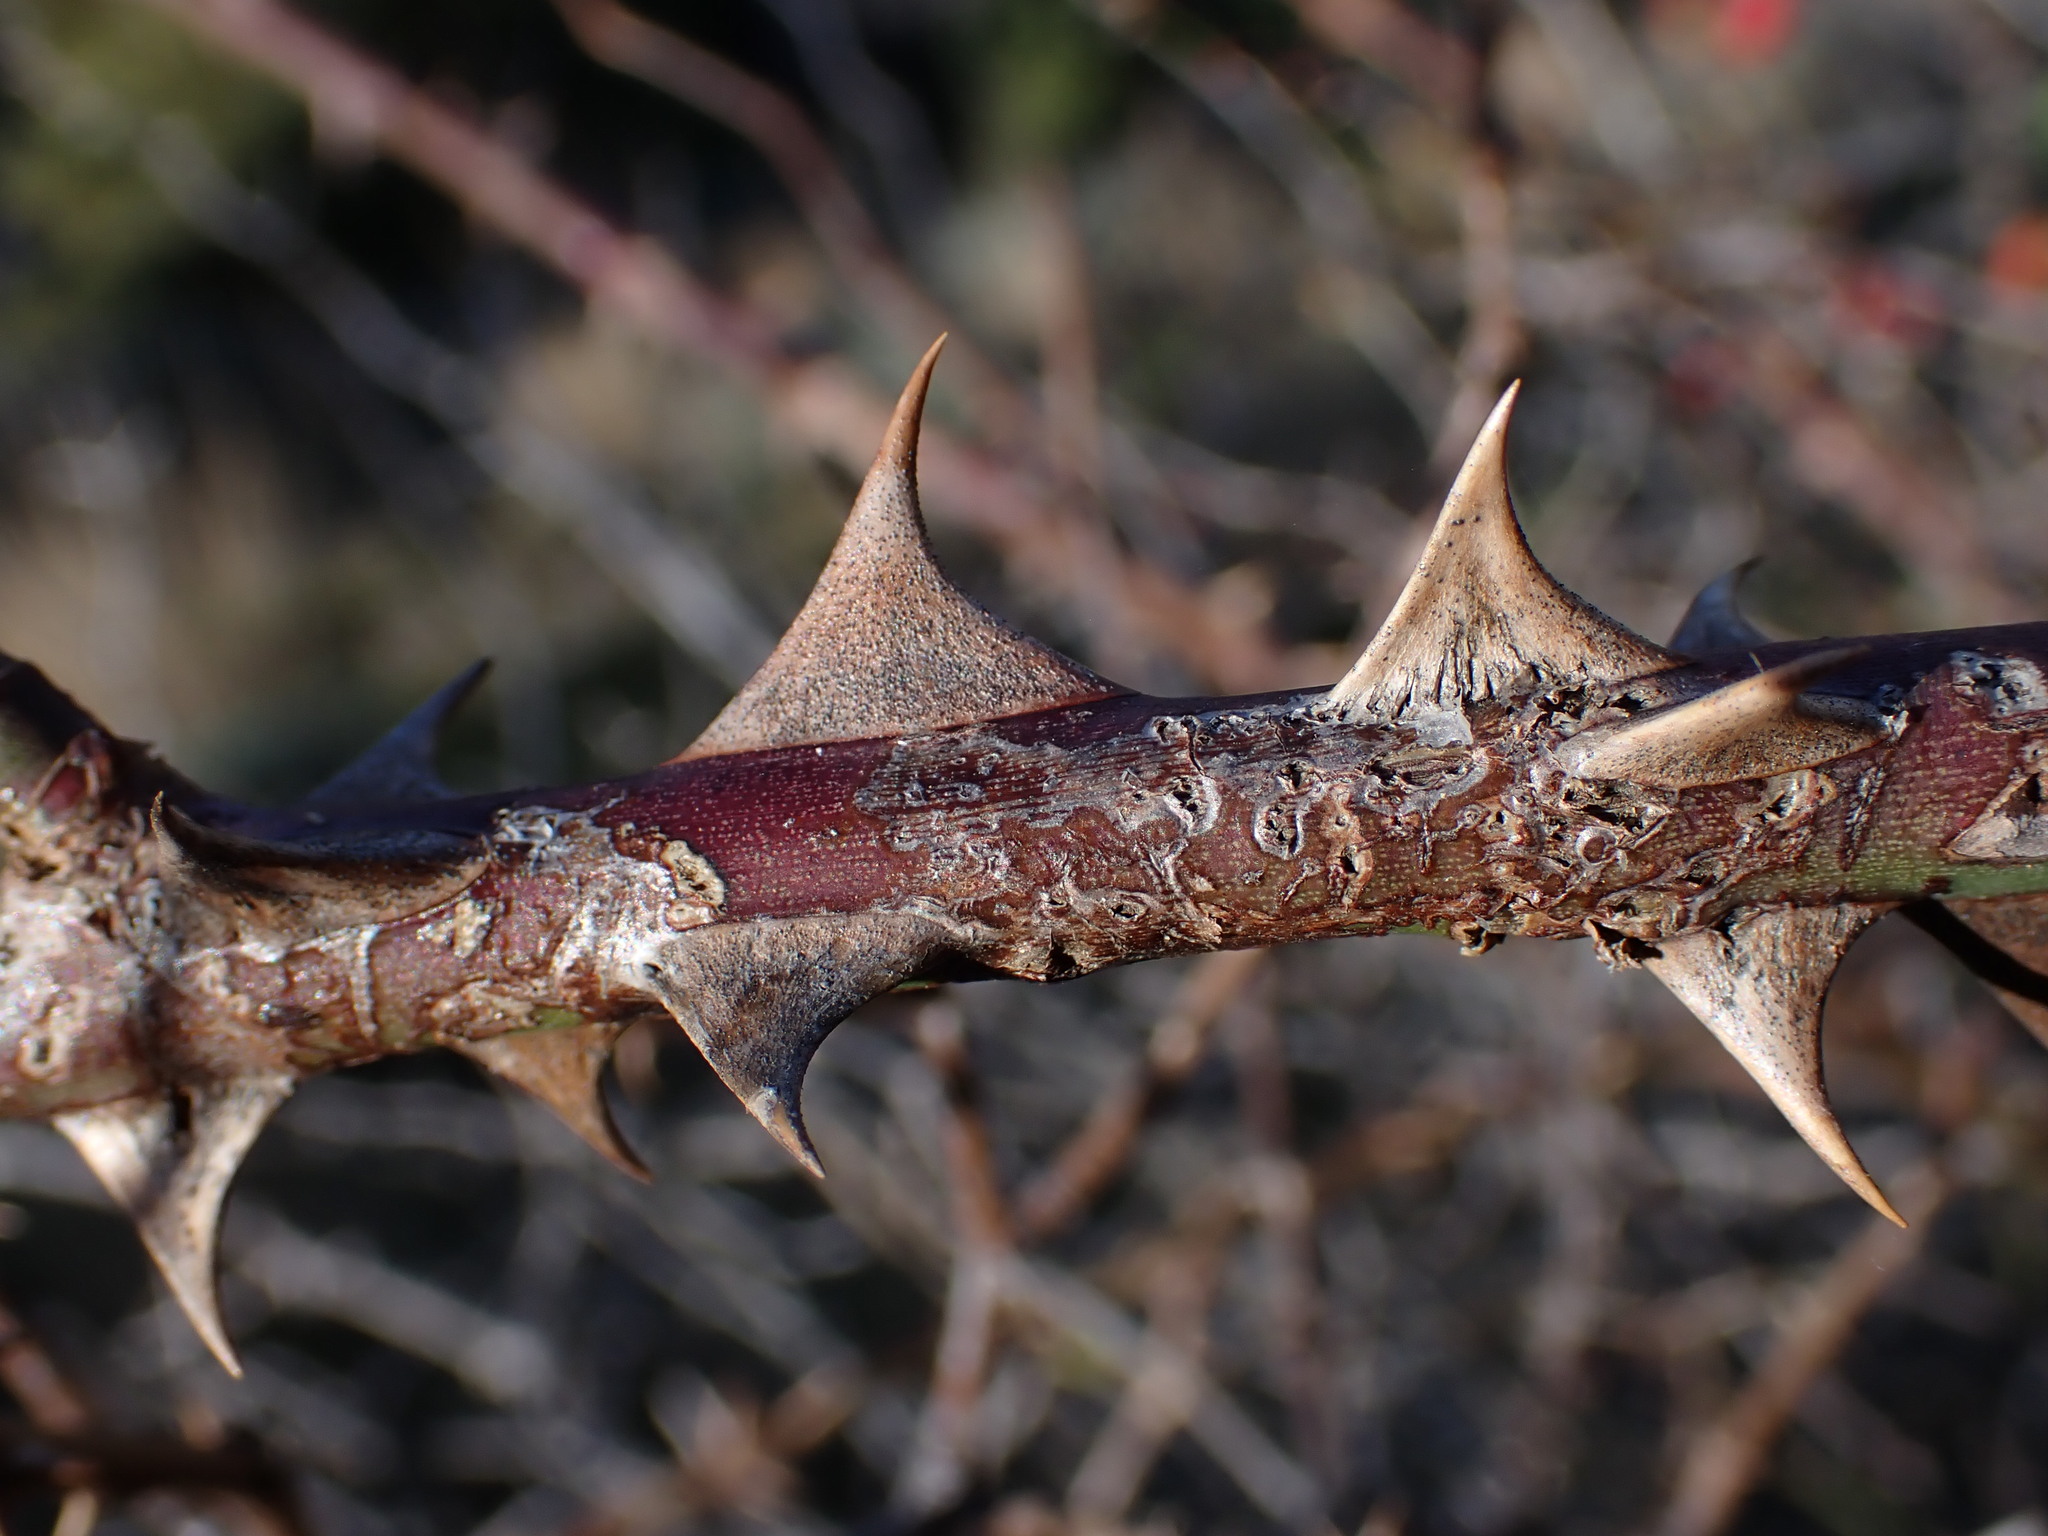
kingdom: Plantae
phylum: Tracheophyta
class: Magnoliopsida
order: Rosales
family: Rosaceae
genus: Rosa
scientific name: Rosa agrestis
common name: Fieldbriar
